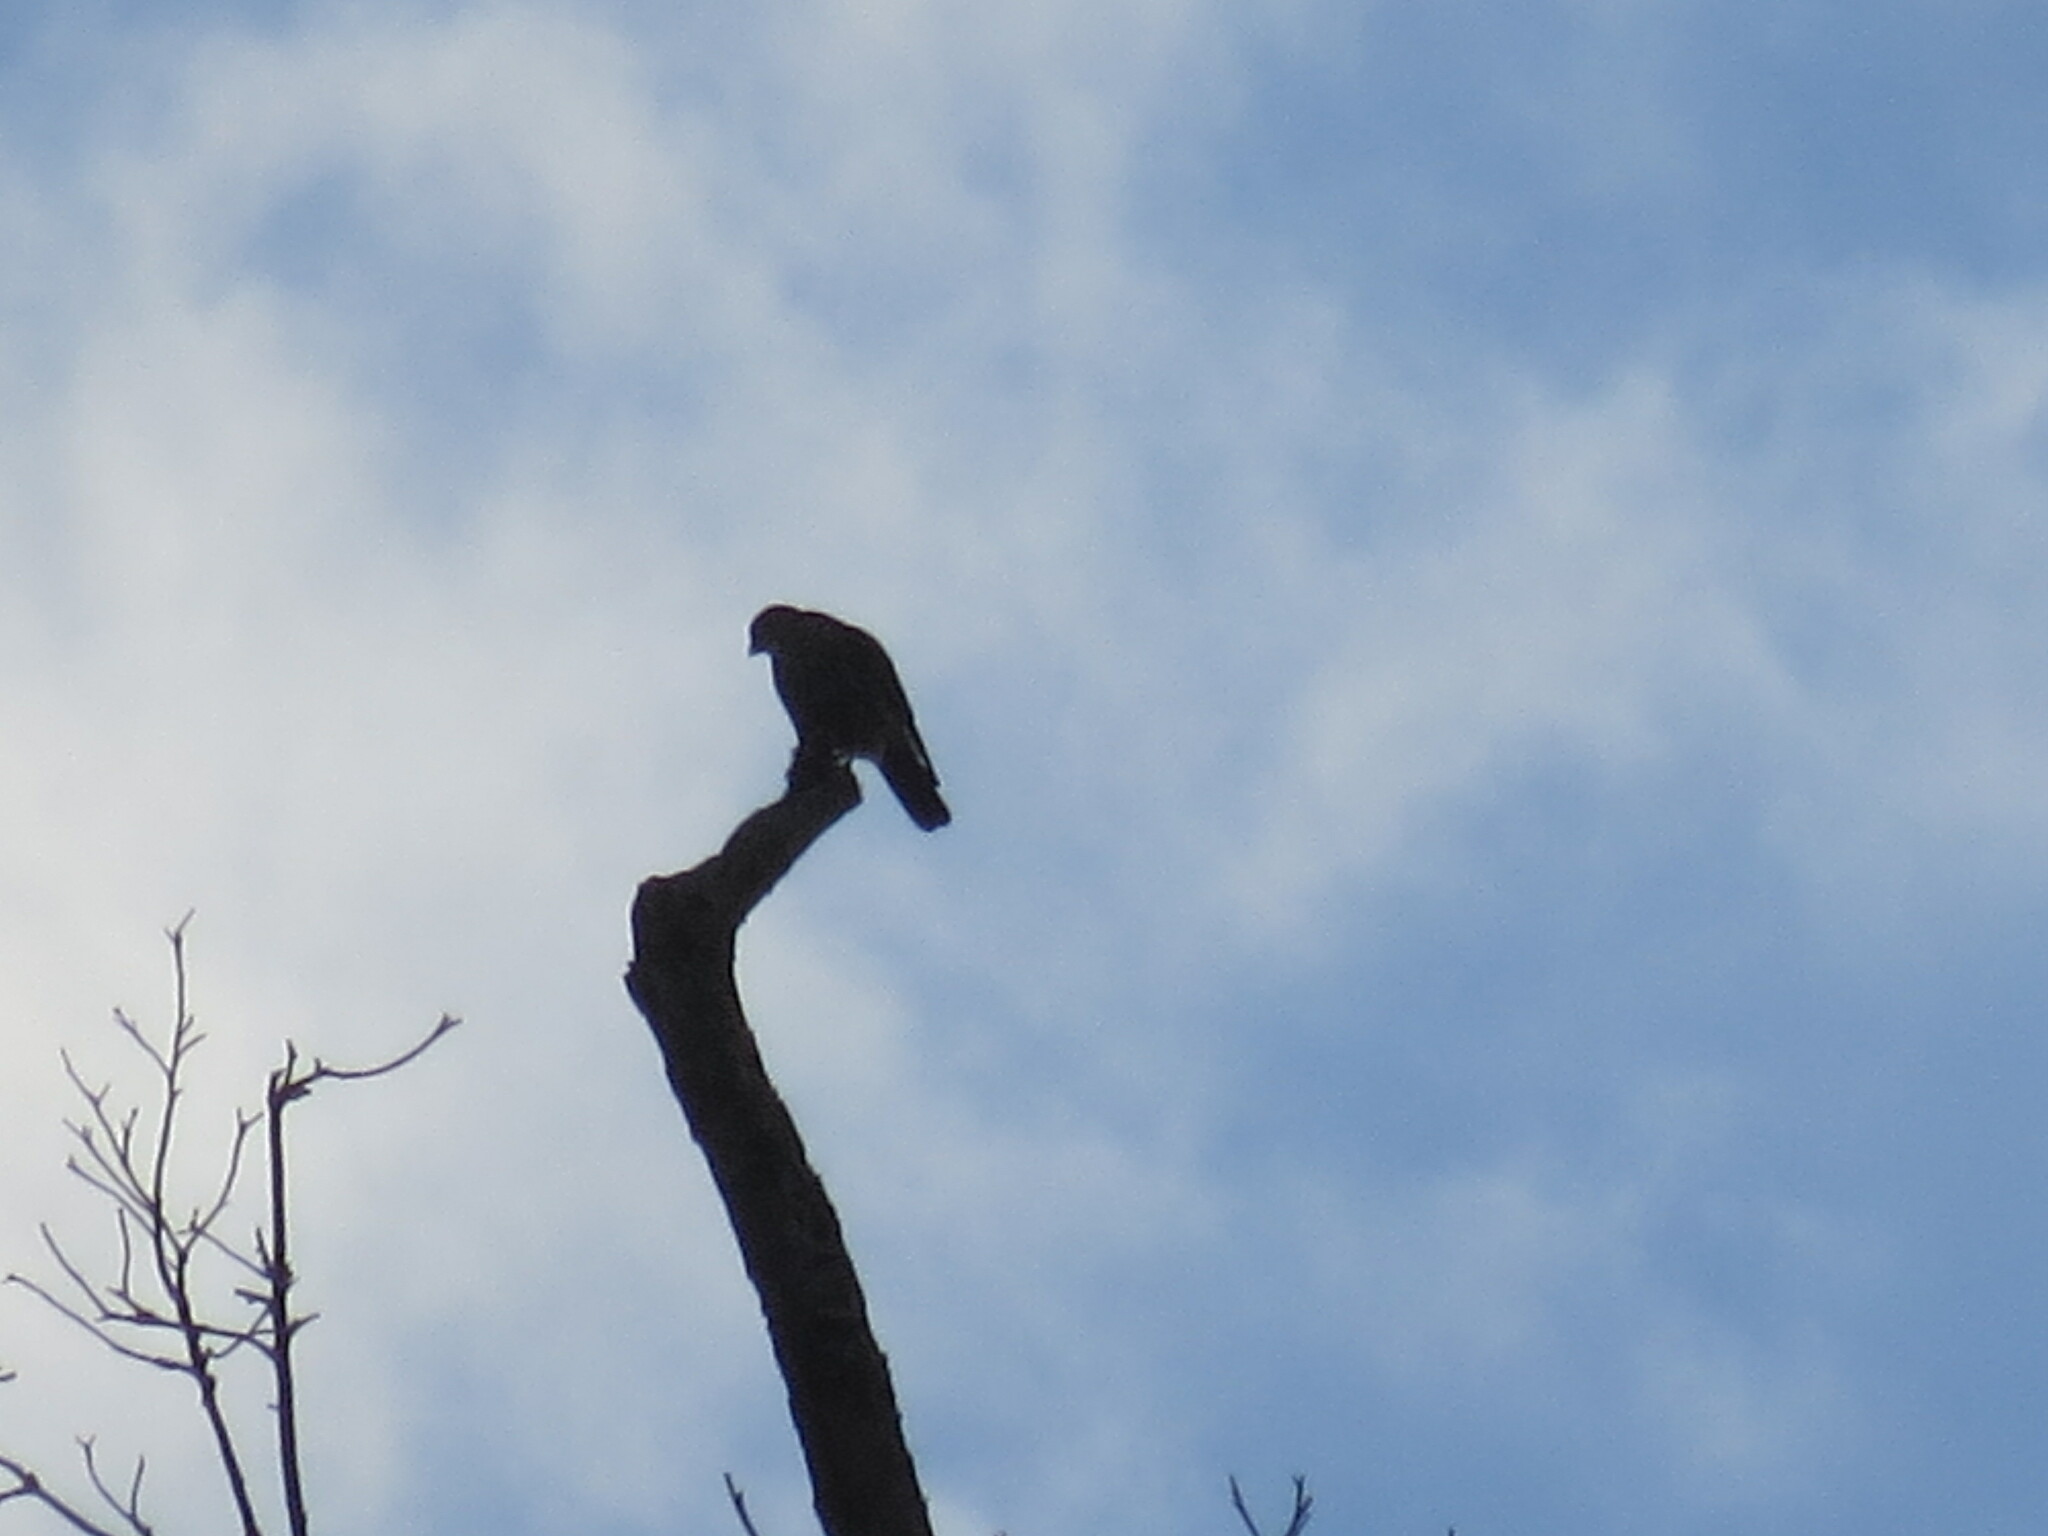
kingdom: Animalia
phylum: Chordata
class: Aves
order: Falconiformes
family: Falconidae
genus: Falco
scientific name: Falco columbarius
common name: Merlin
